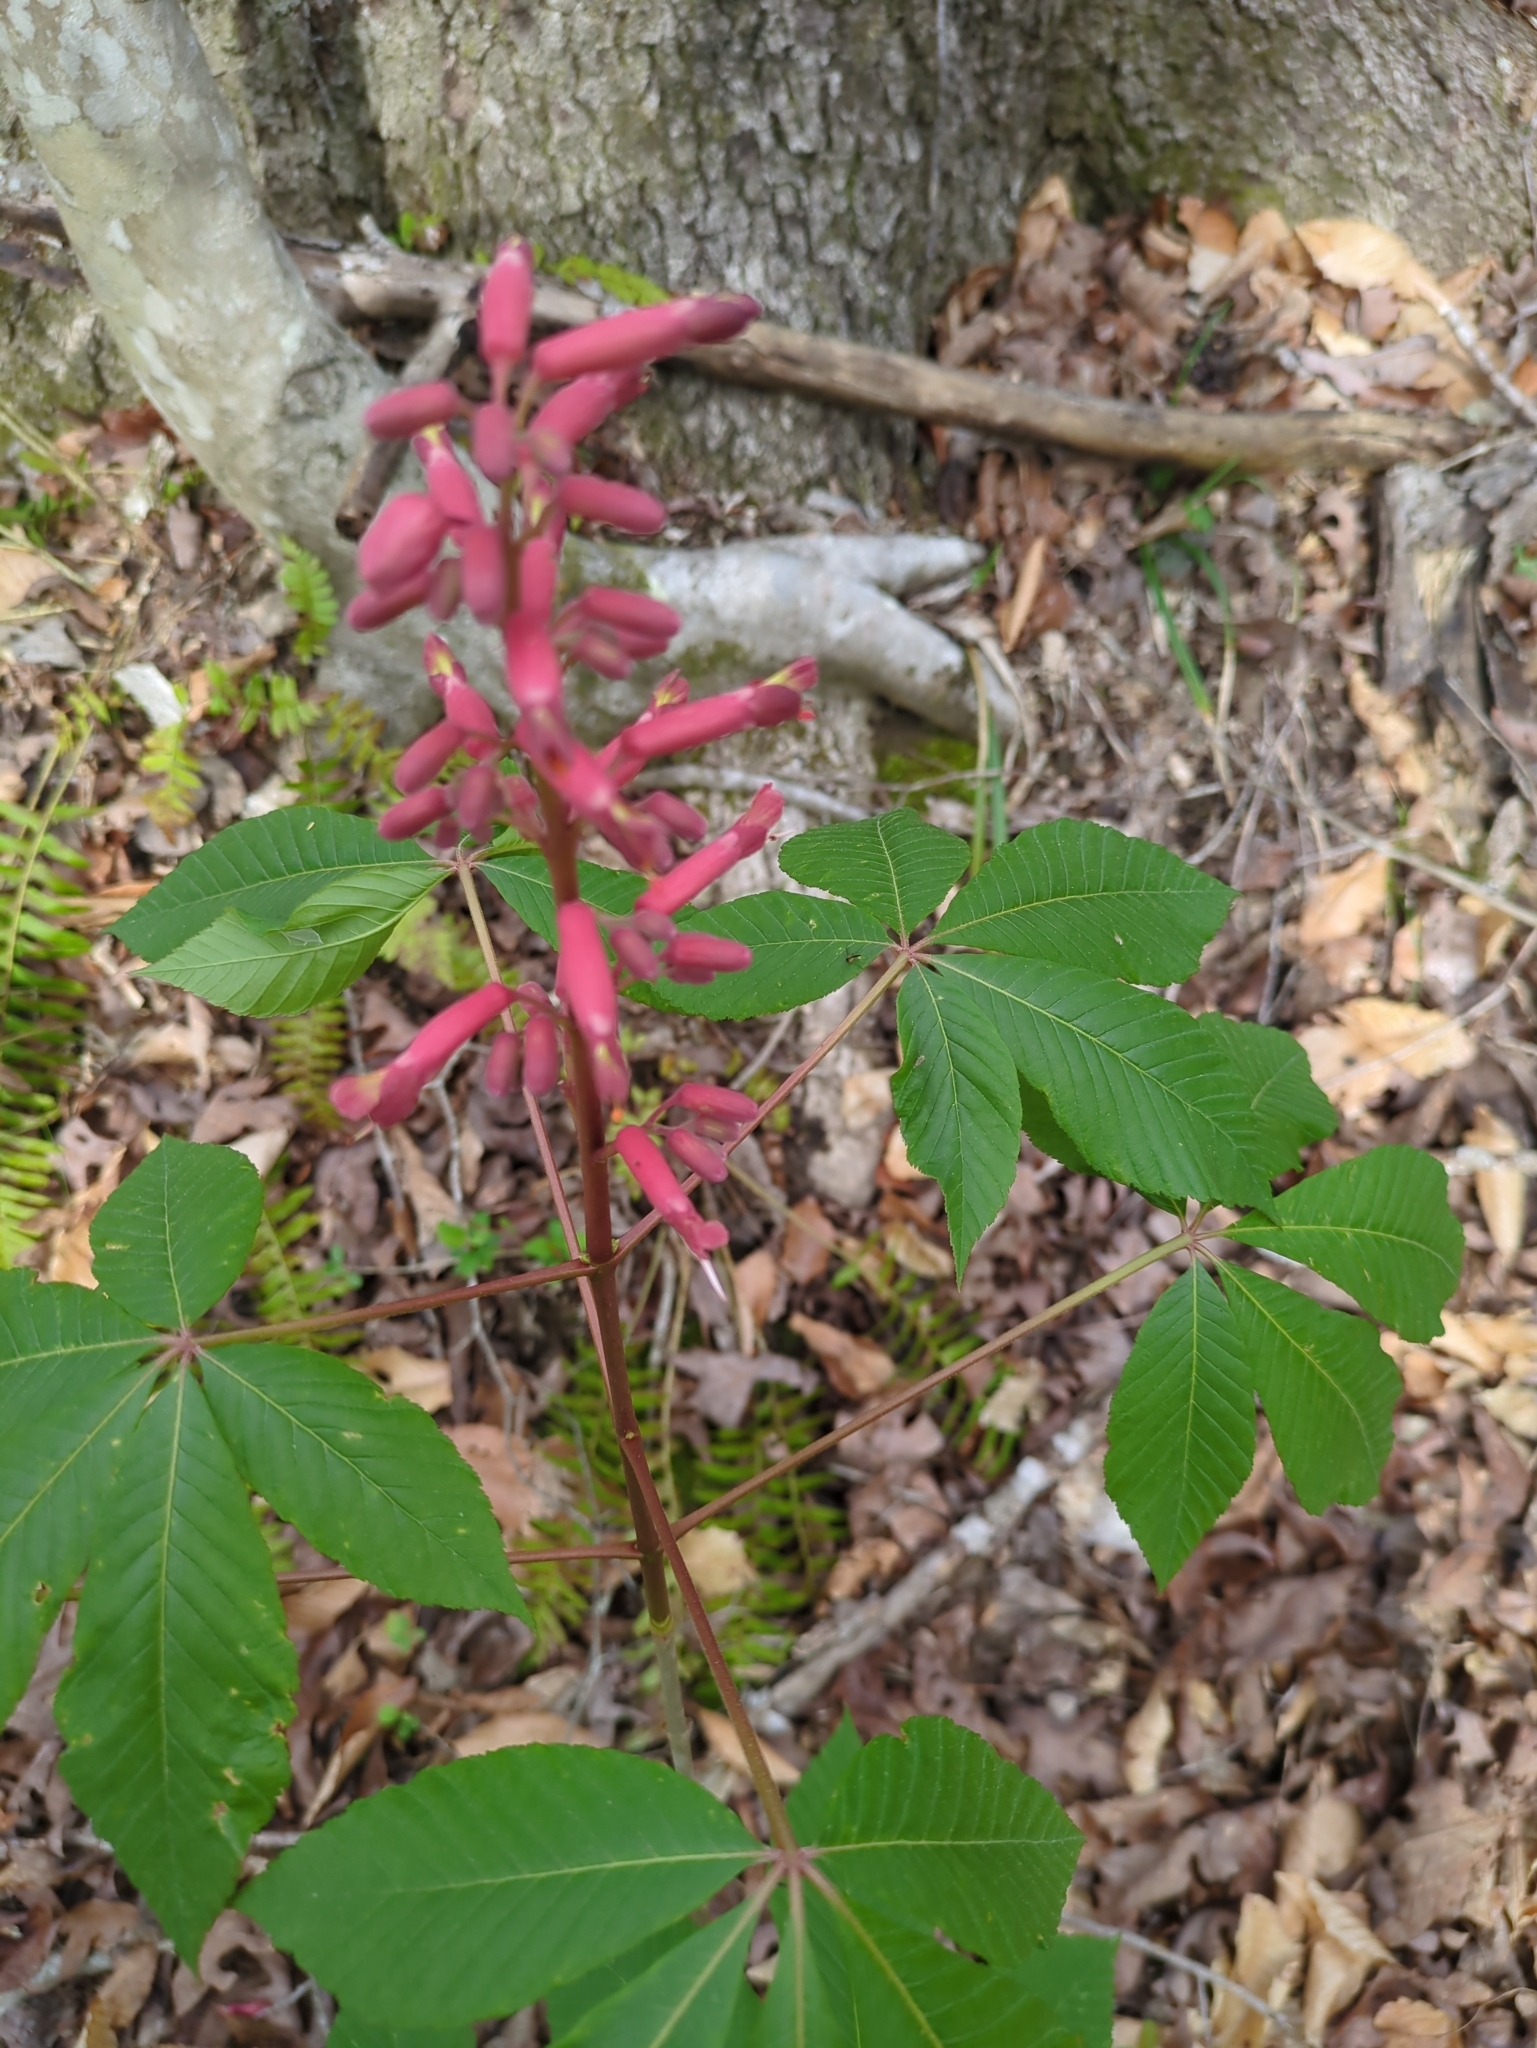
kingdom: Plantae
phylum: Tracheophyta
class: Magnoliopsida
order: Sapindales
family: Sapindaceae
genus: Aesculus
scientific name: Aesculus pavia
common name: Red buckeye
